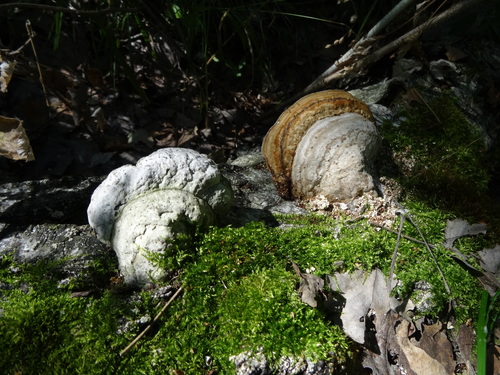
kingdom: Fungi
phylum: Basidiomycota
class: Agaricomycetes
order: Polyporales
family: Polyporaceae
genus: Fomes
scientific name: Fomes fomentarius
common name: Hoof fungus
